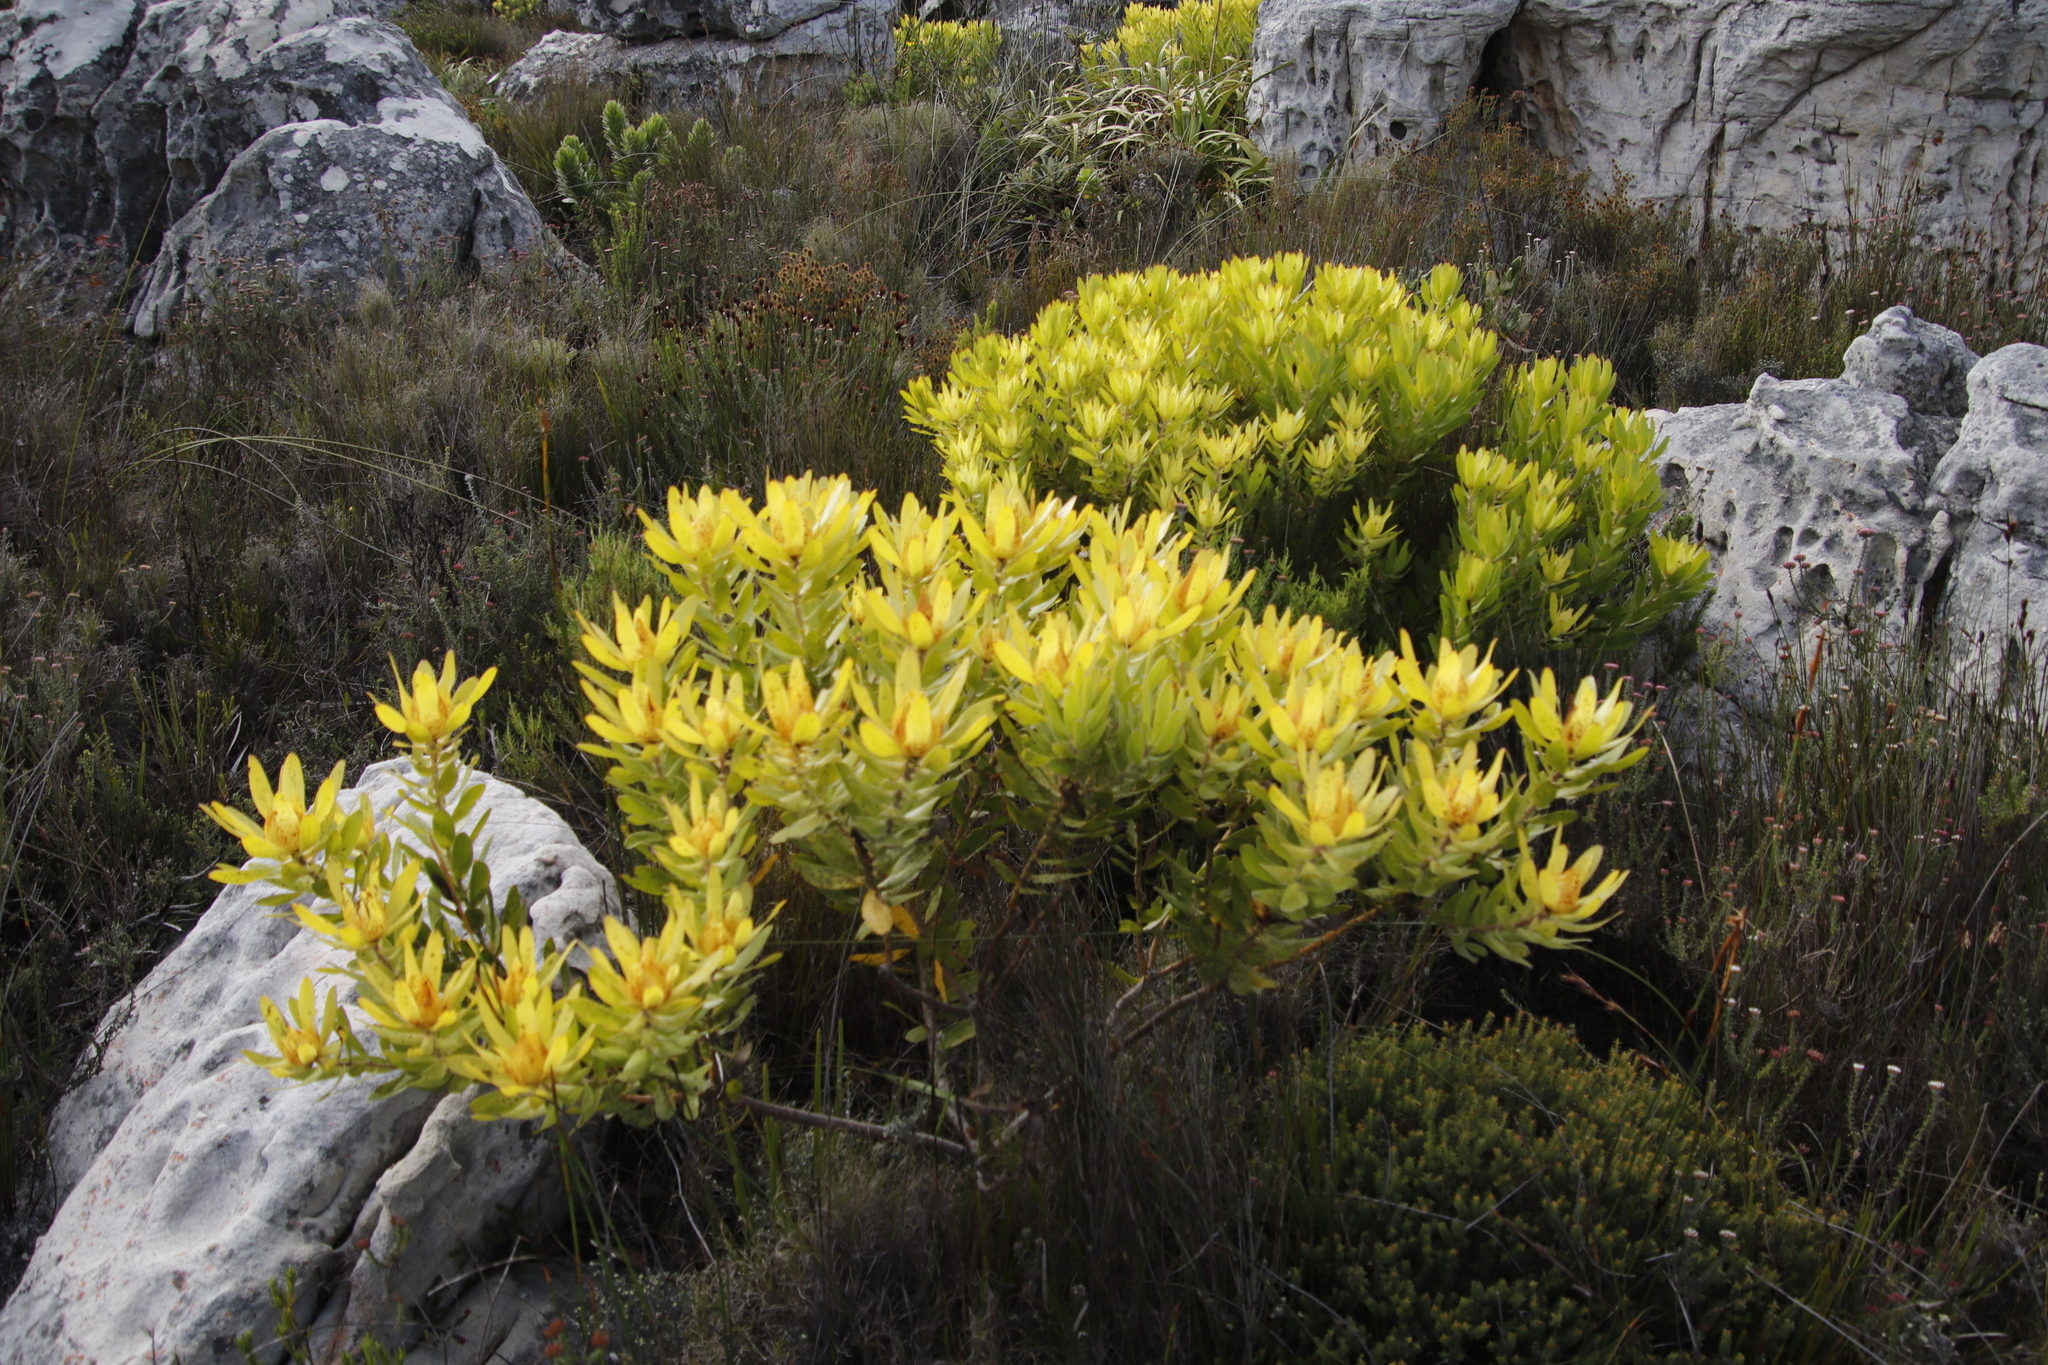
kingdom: Plantae
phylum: Tracheophyta
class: Magnoliopsida
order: Proteales
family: Proteaceae
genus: Leucadendron
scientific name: Leucadendron laureolum
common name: Golden sunshinebush
